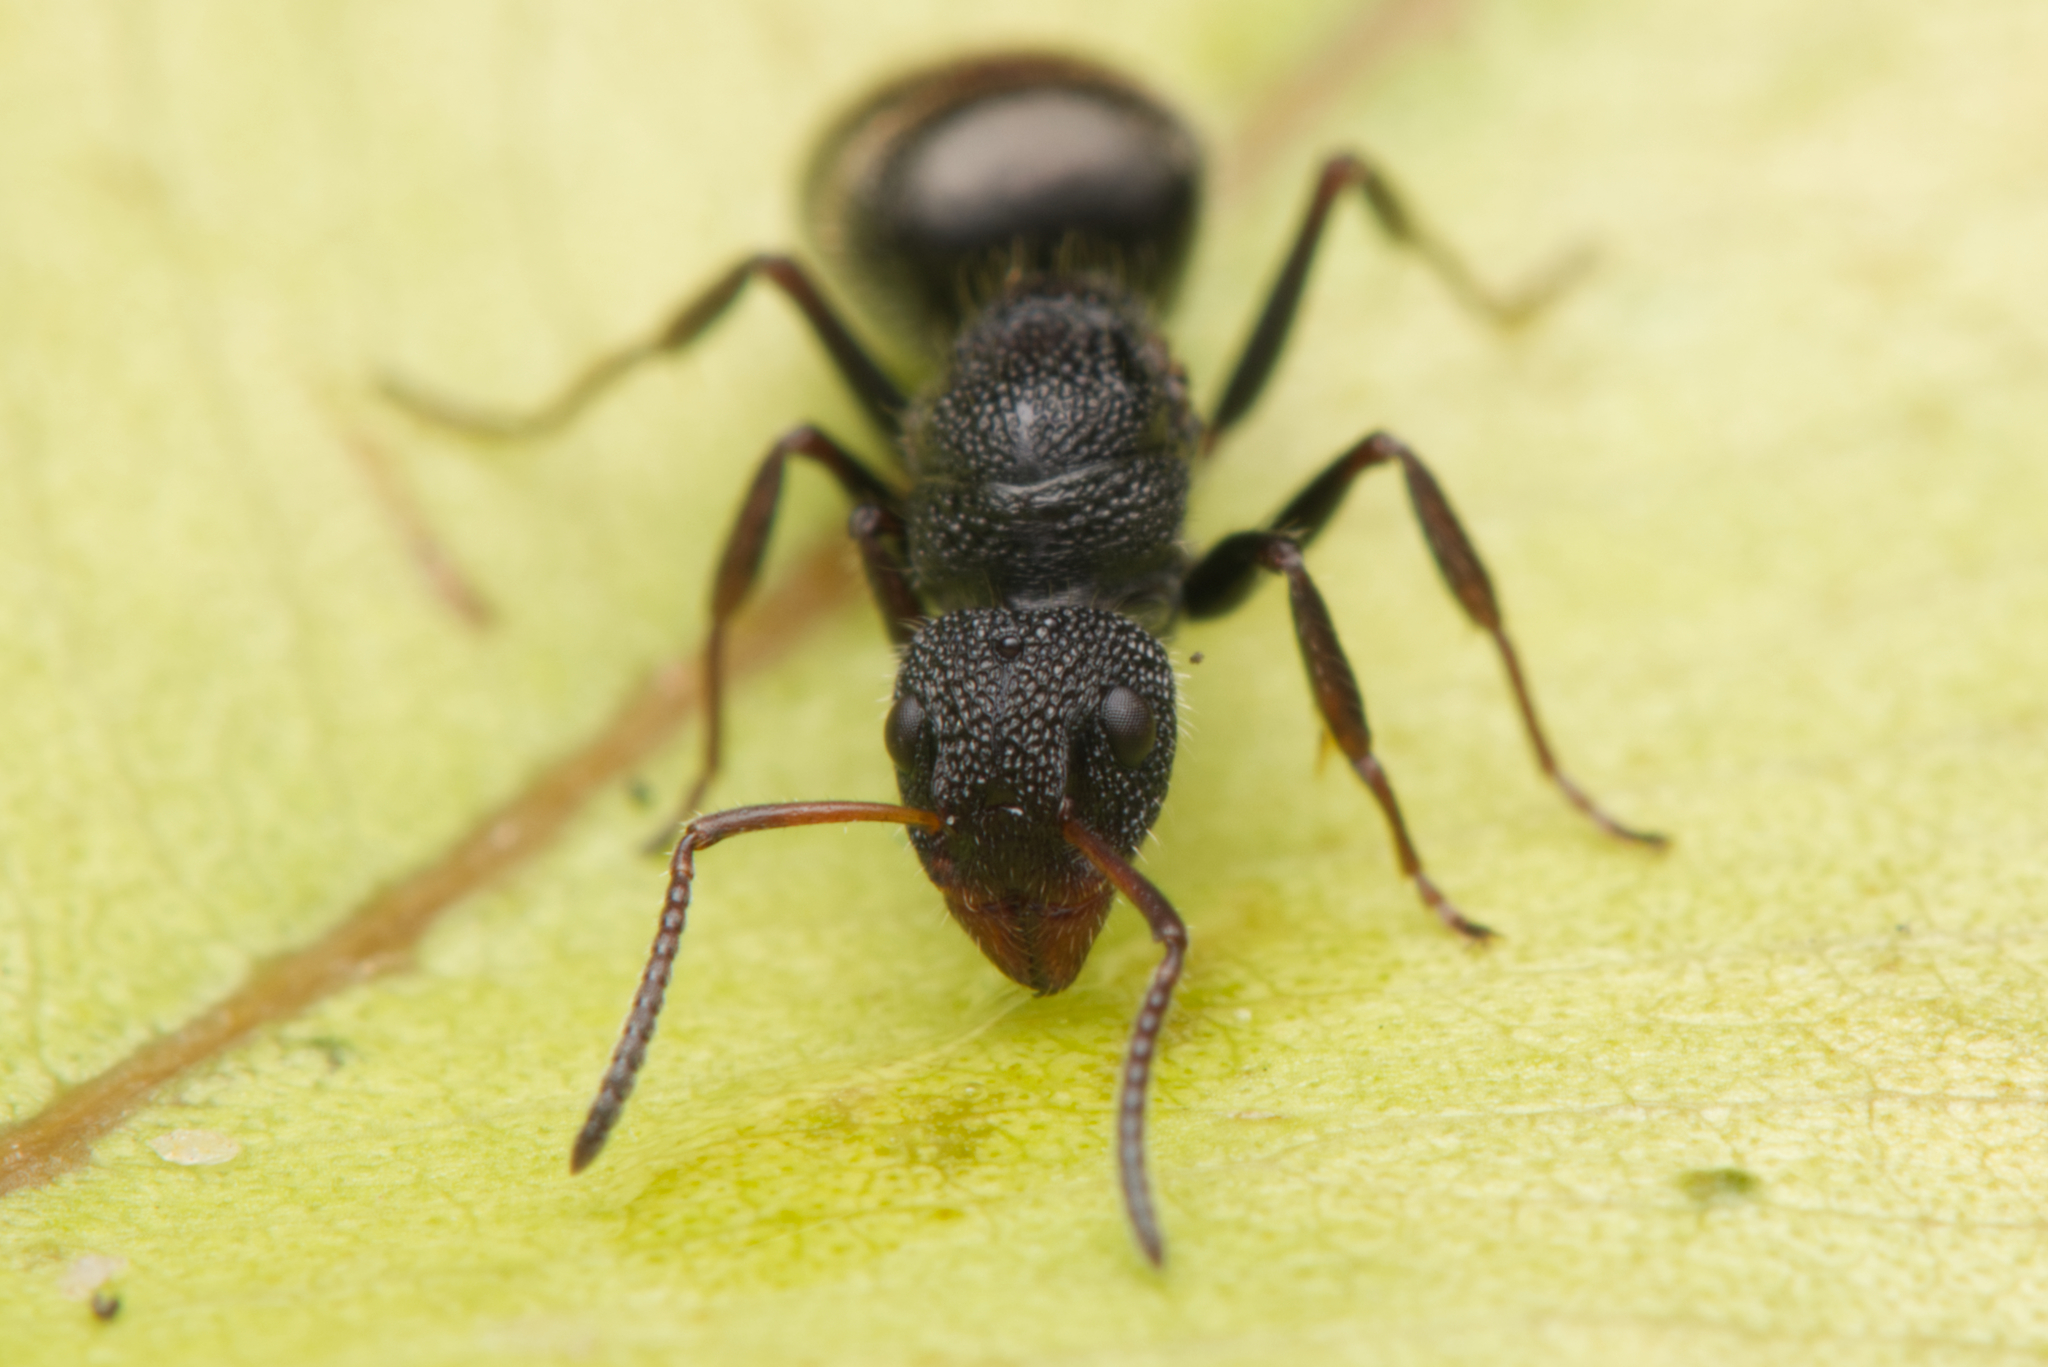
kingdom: Animalia
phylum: Arthropoda
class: Insecta
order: Hymenoptera
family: Formicidae
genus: Dolichoderus
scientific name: Dolichoderus scrobiculatus
